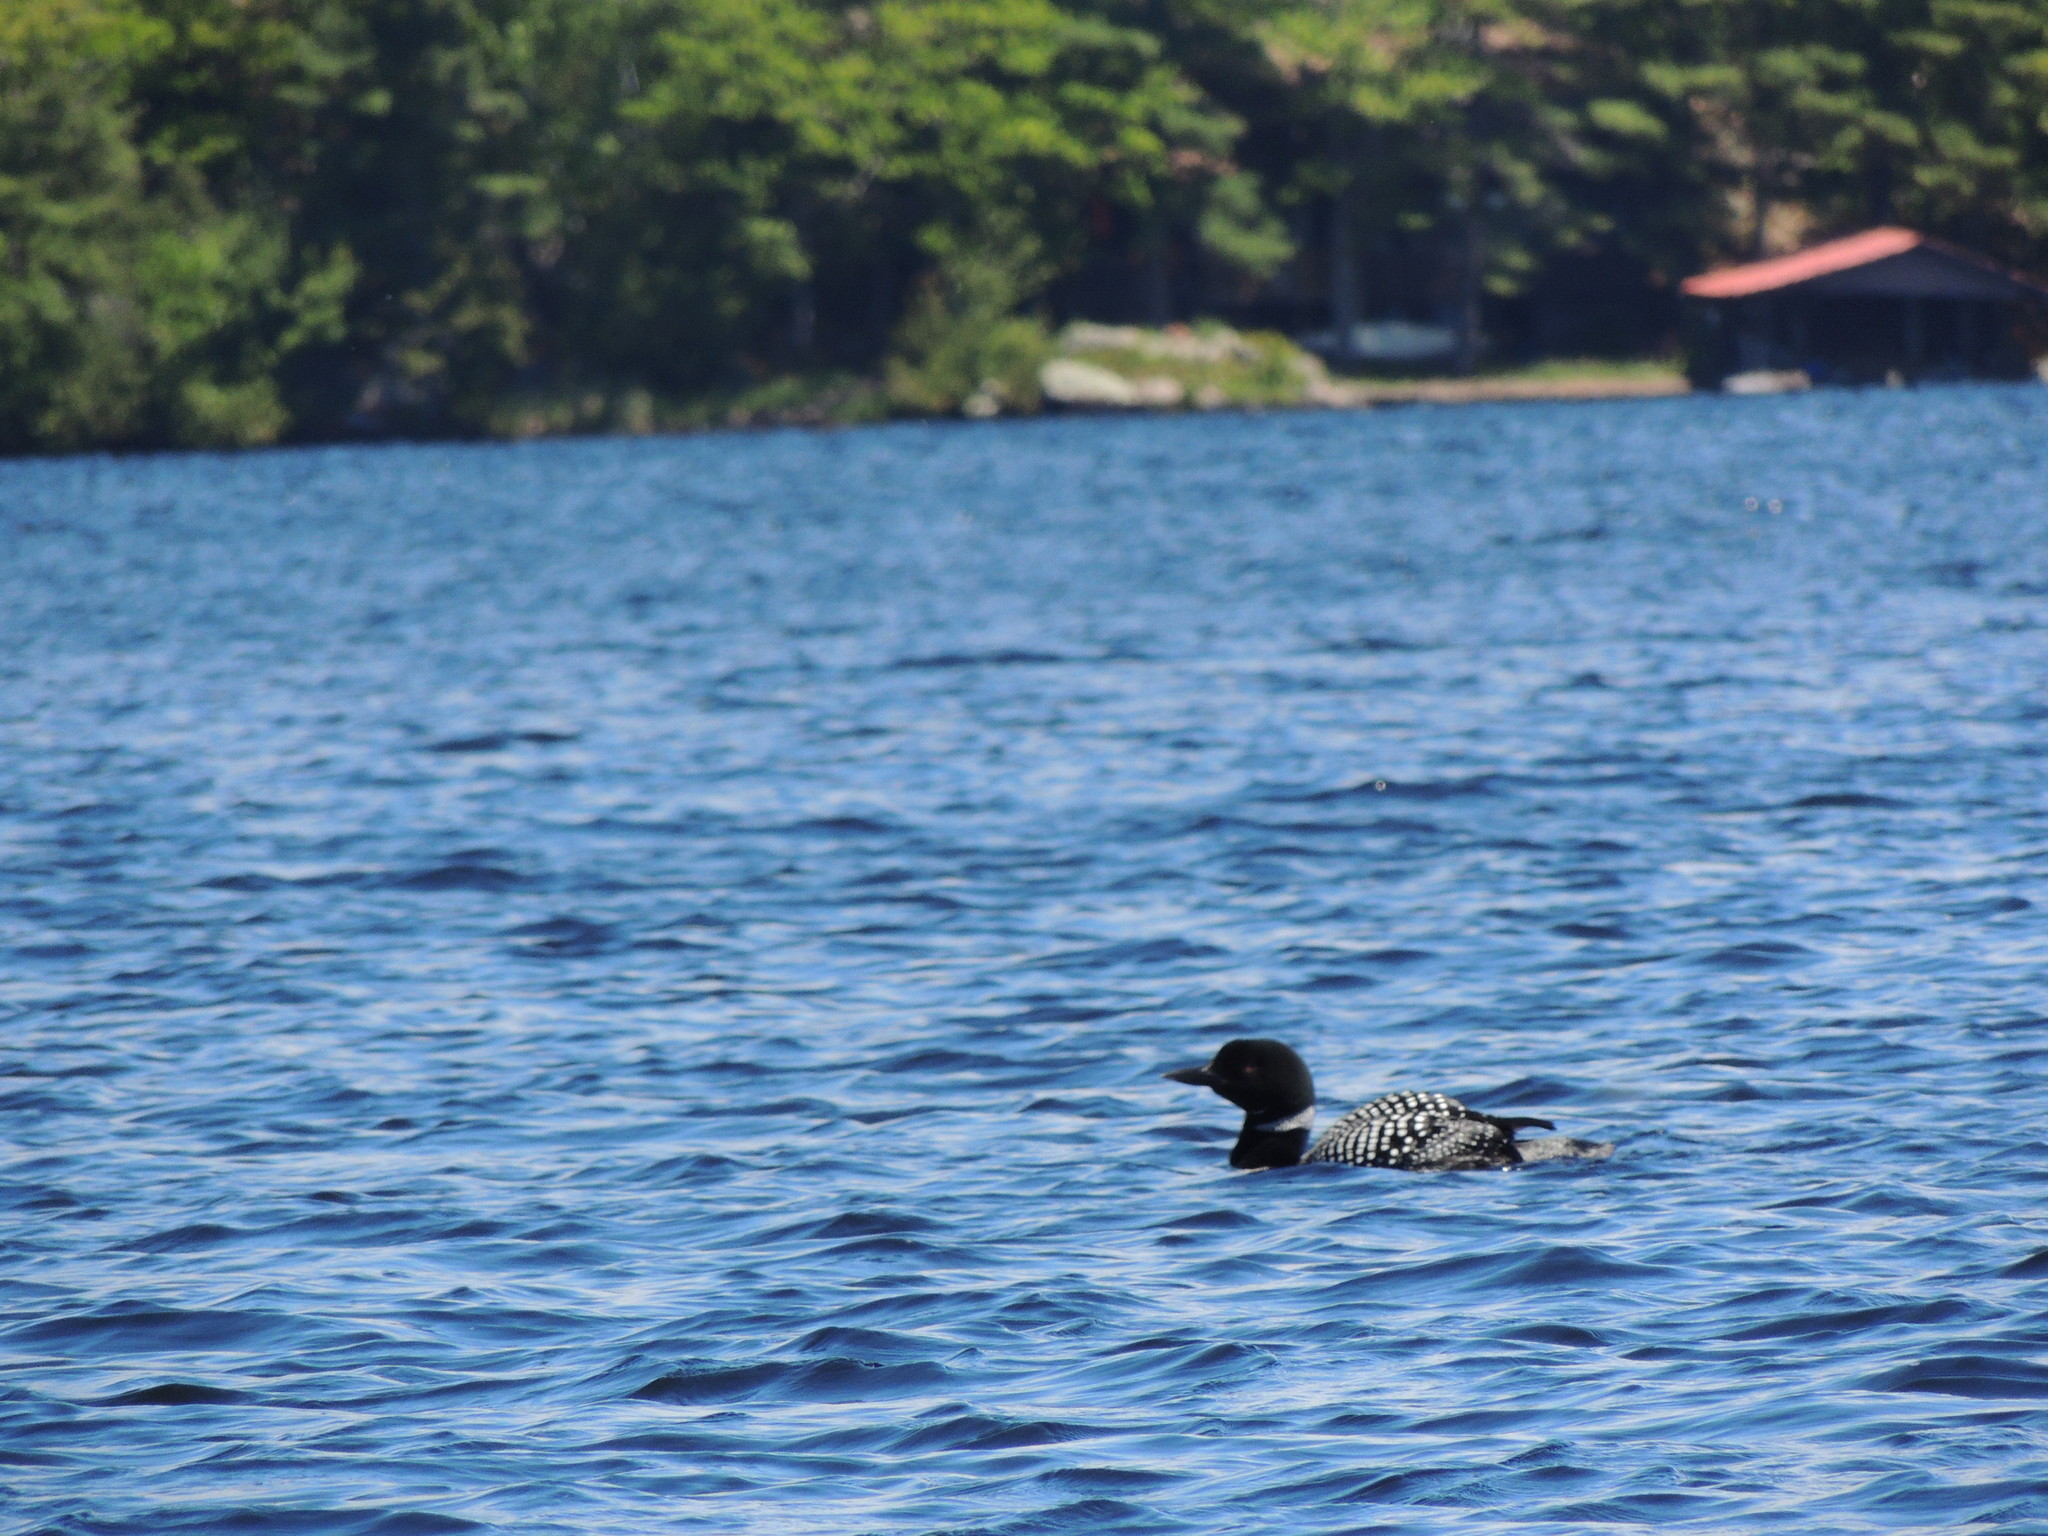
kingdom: Animalia
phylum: Chordata
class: Aves
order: Gaviiformes
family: Gaviidae
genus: Gavia
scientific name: Gavia immer
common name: Common loon
